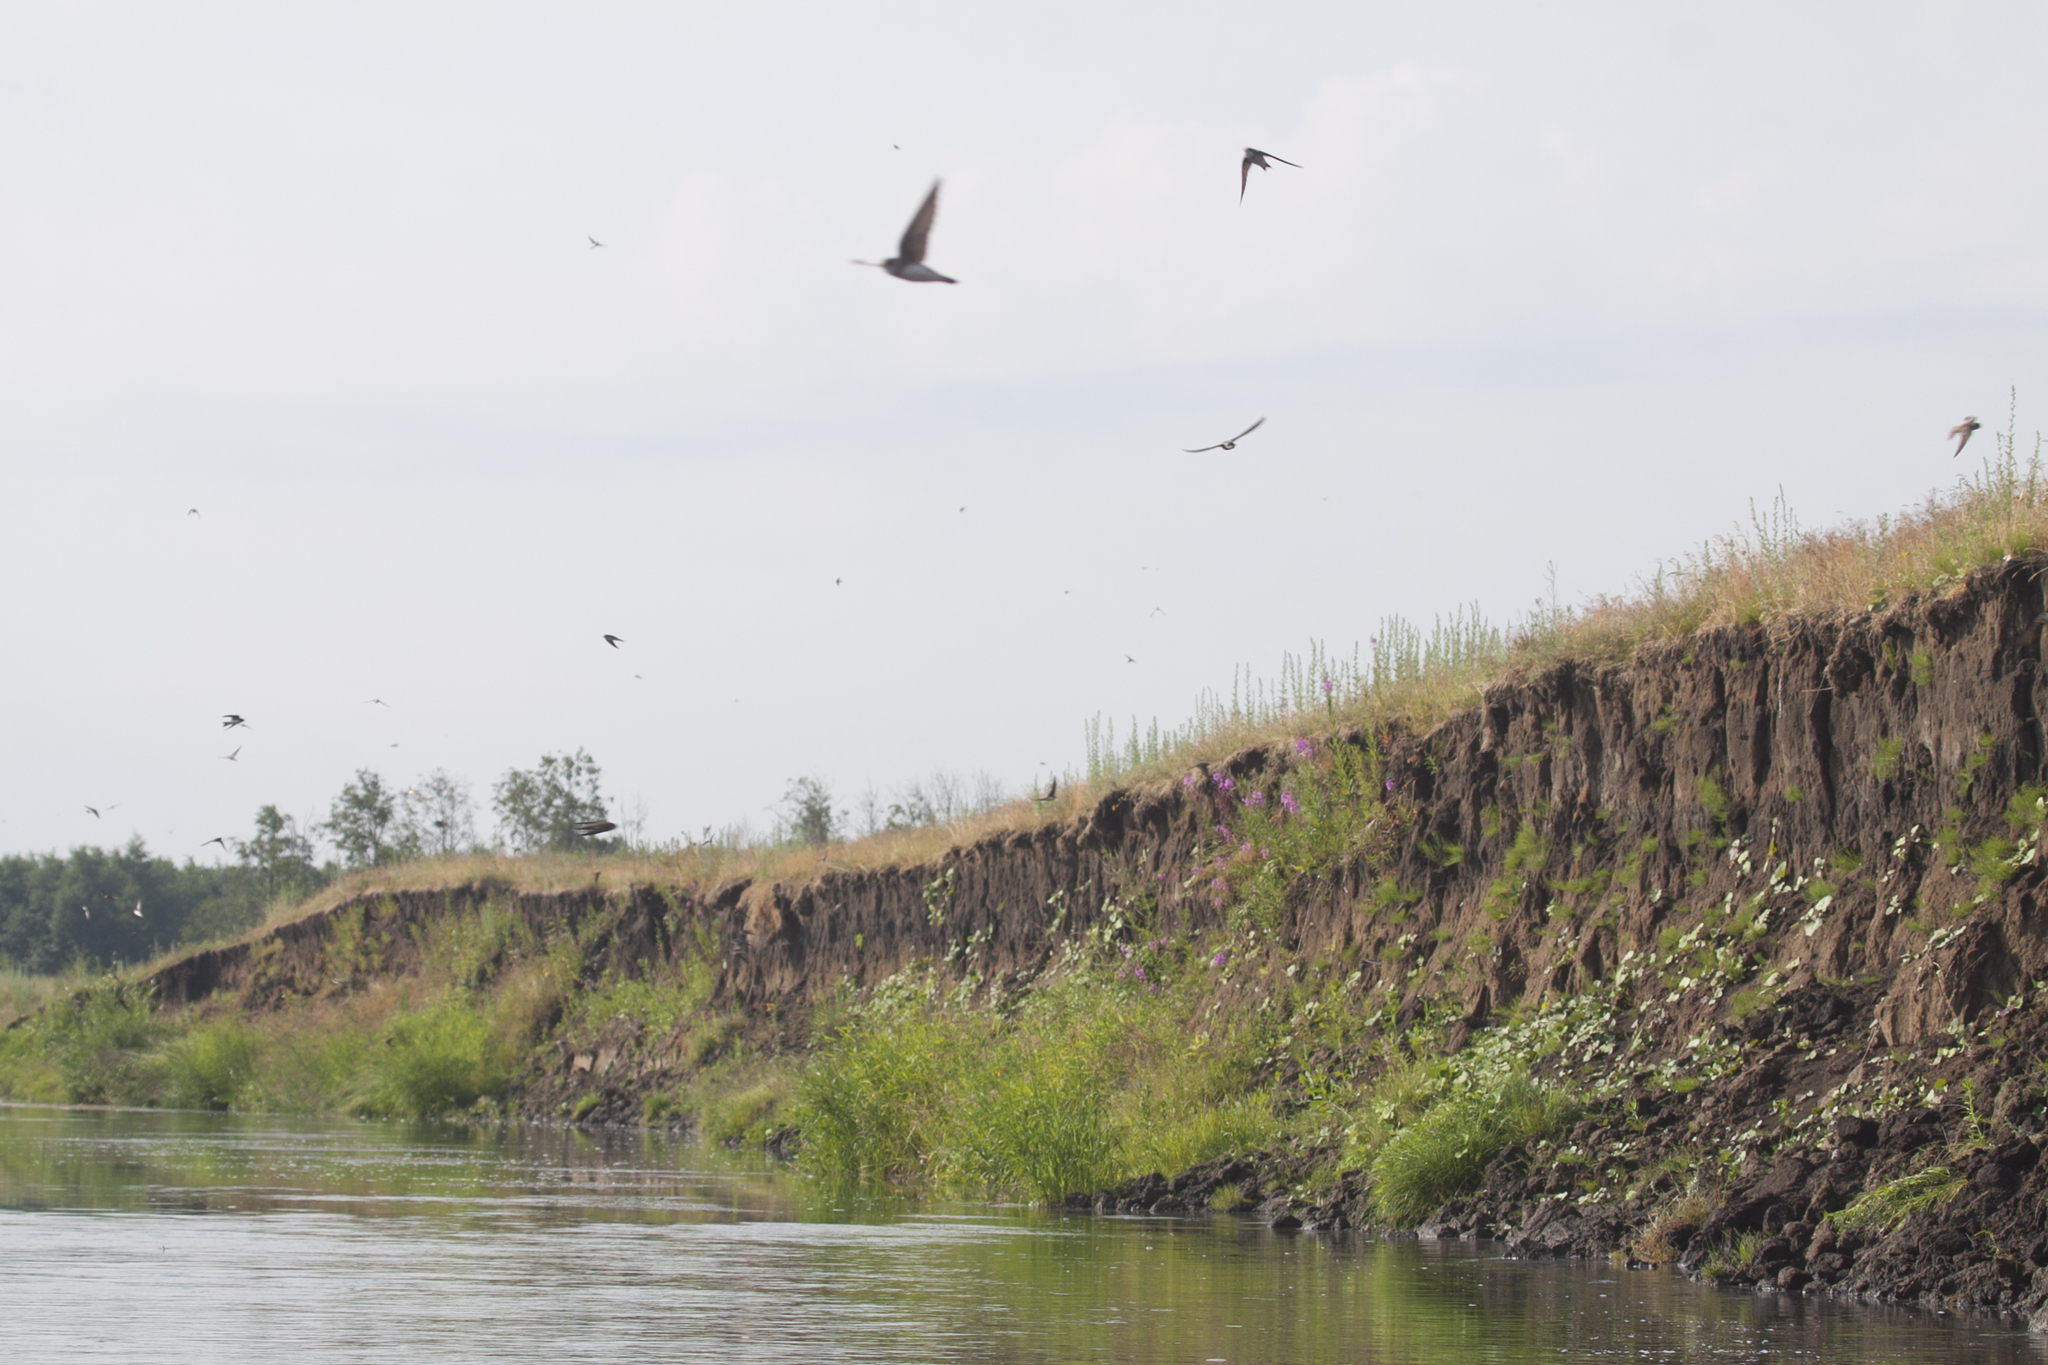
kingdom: Animalia
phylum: Chordata
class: Aves
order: Passeriformes
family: Hirundinidae
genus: Riparia
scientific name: Riparia riparia
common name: Sand martin
